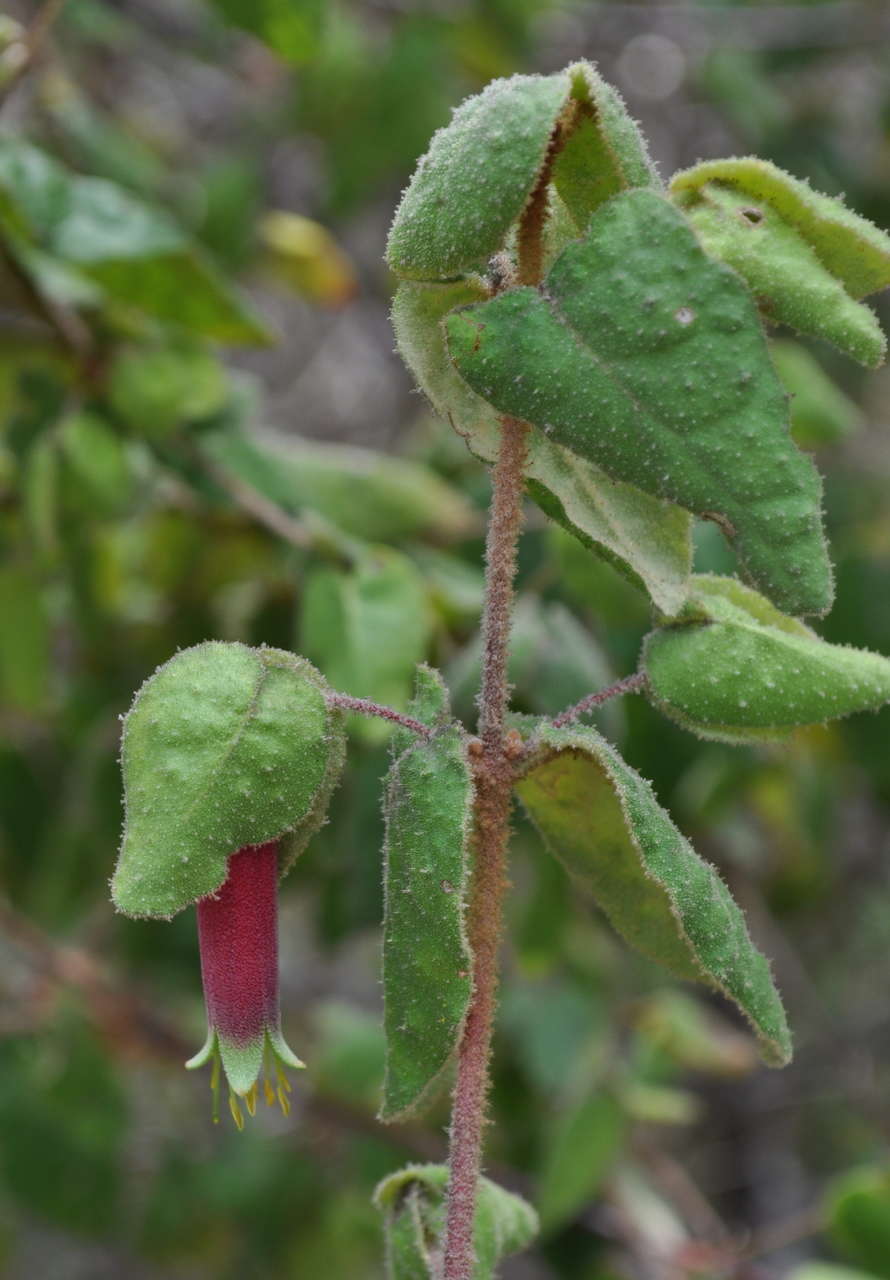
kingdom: Plantae
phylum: Tracheophyta
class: Magnoliopsida
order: Sapindales
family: Rutaceae
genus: Correa
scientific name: Correa reflexa
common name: Common correa
